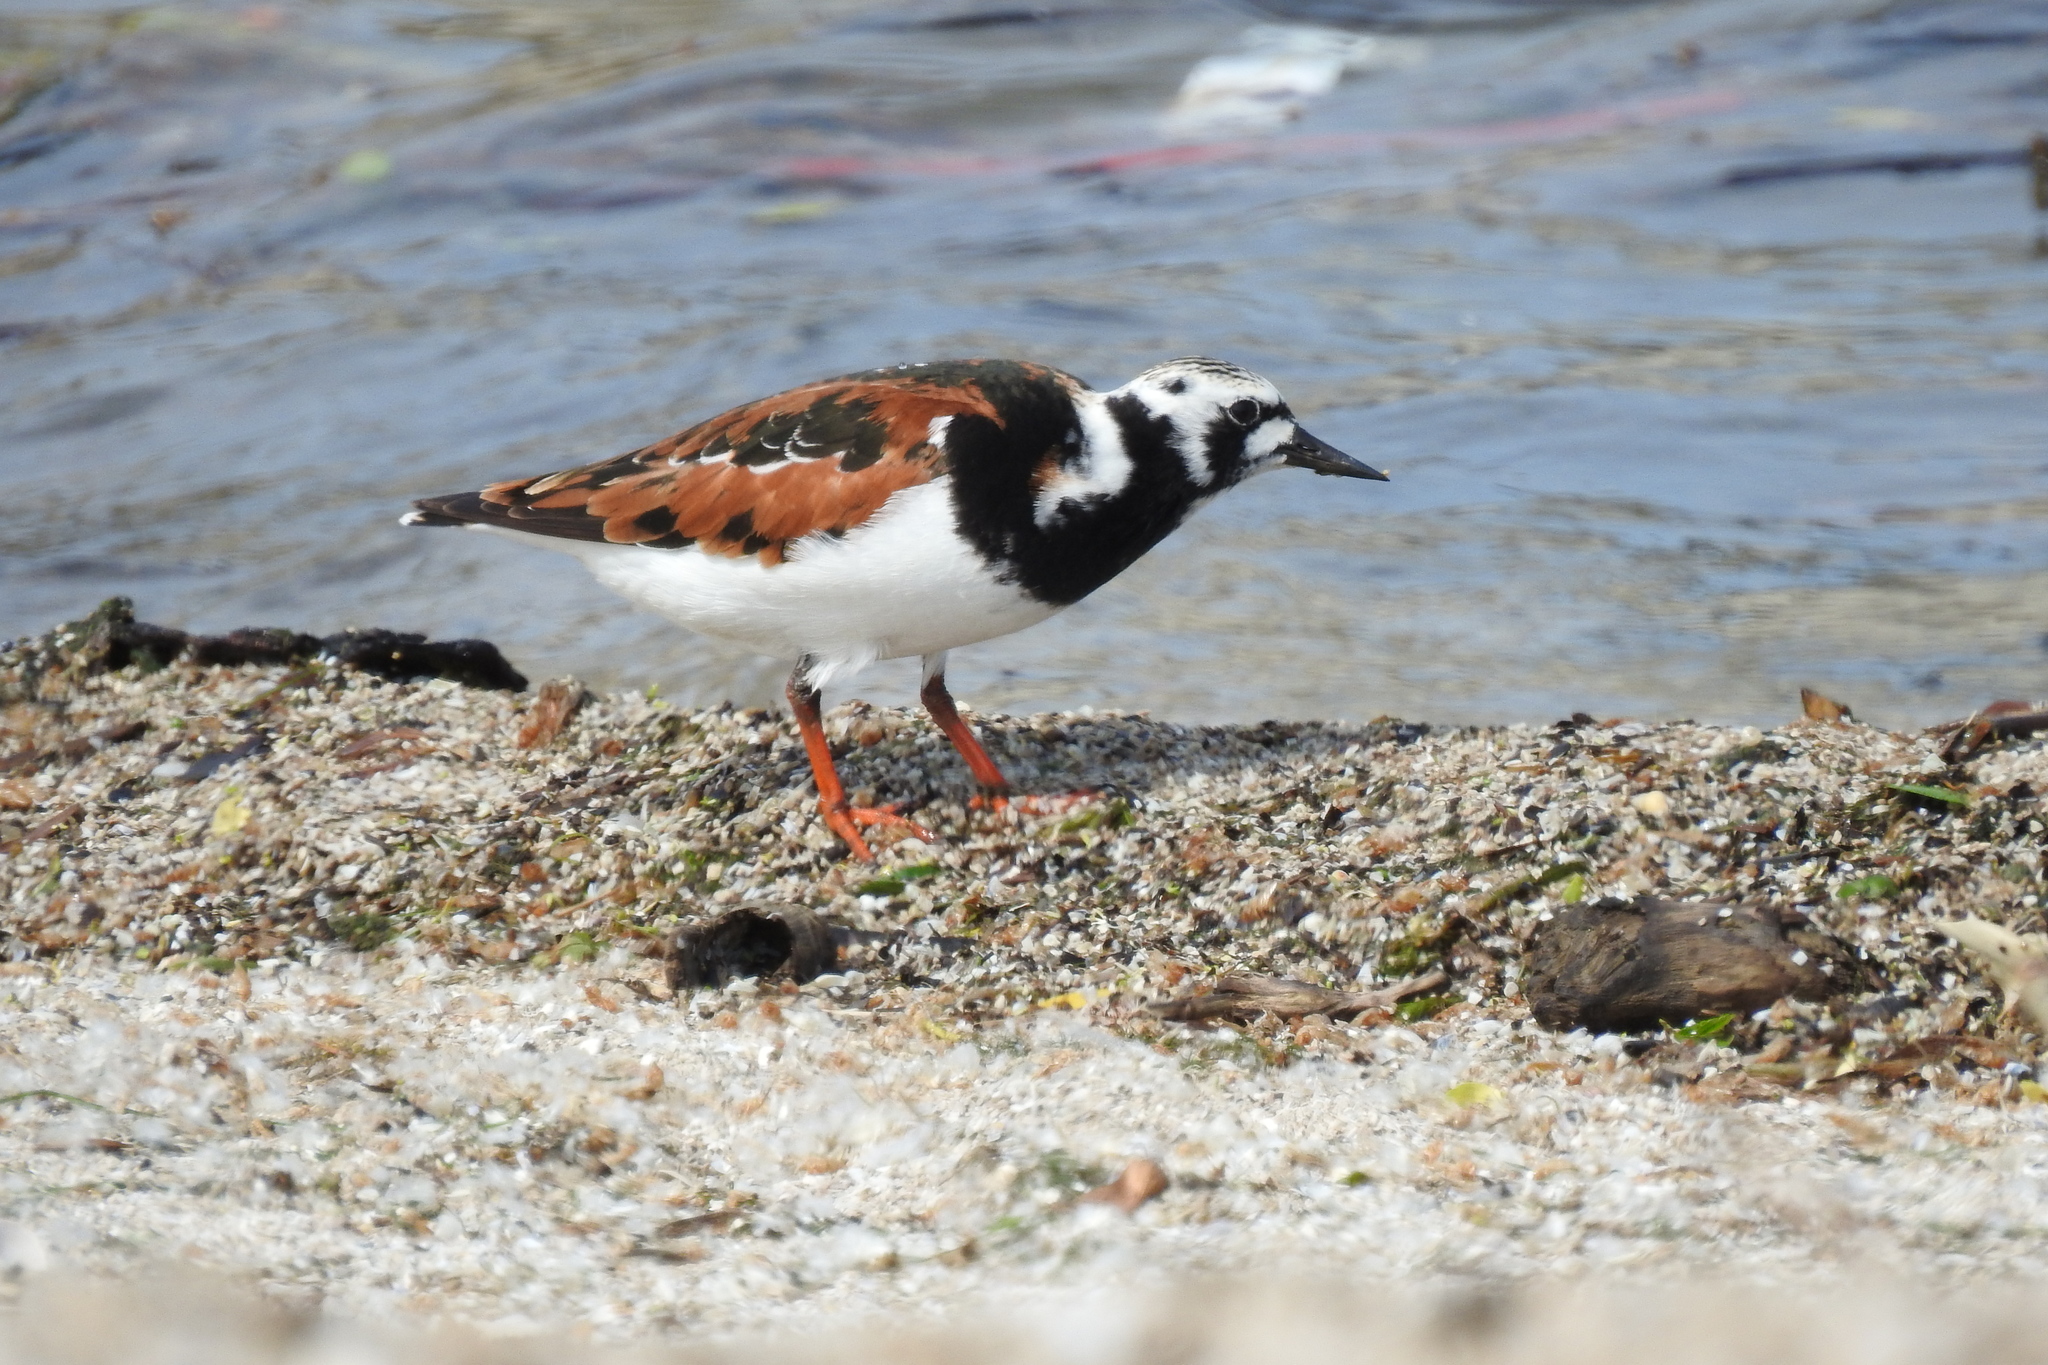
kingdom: Animalia
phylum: Chordata
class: Aves
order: Charadriiformes
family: Scolopacidae
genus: Arenaria
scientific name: Arenaria interpres
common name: Ruddy turnstone
